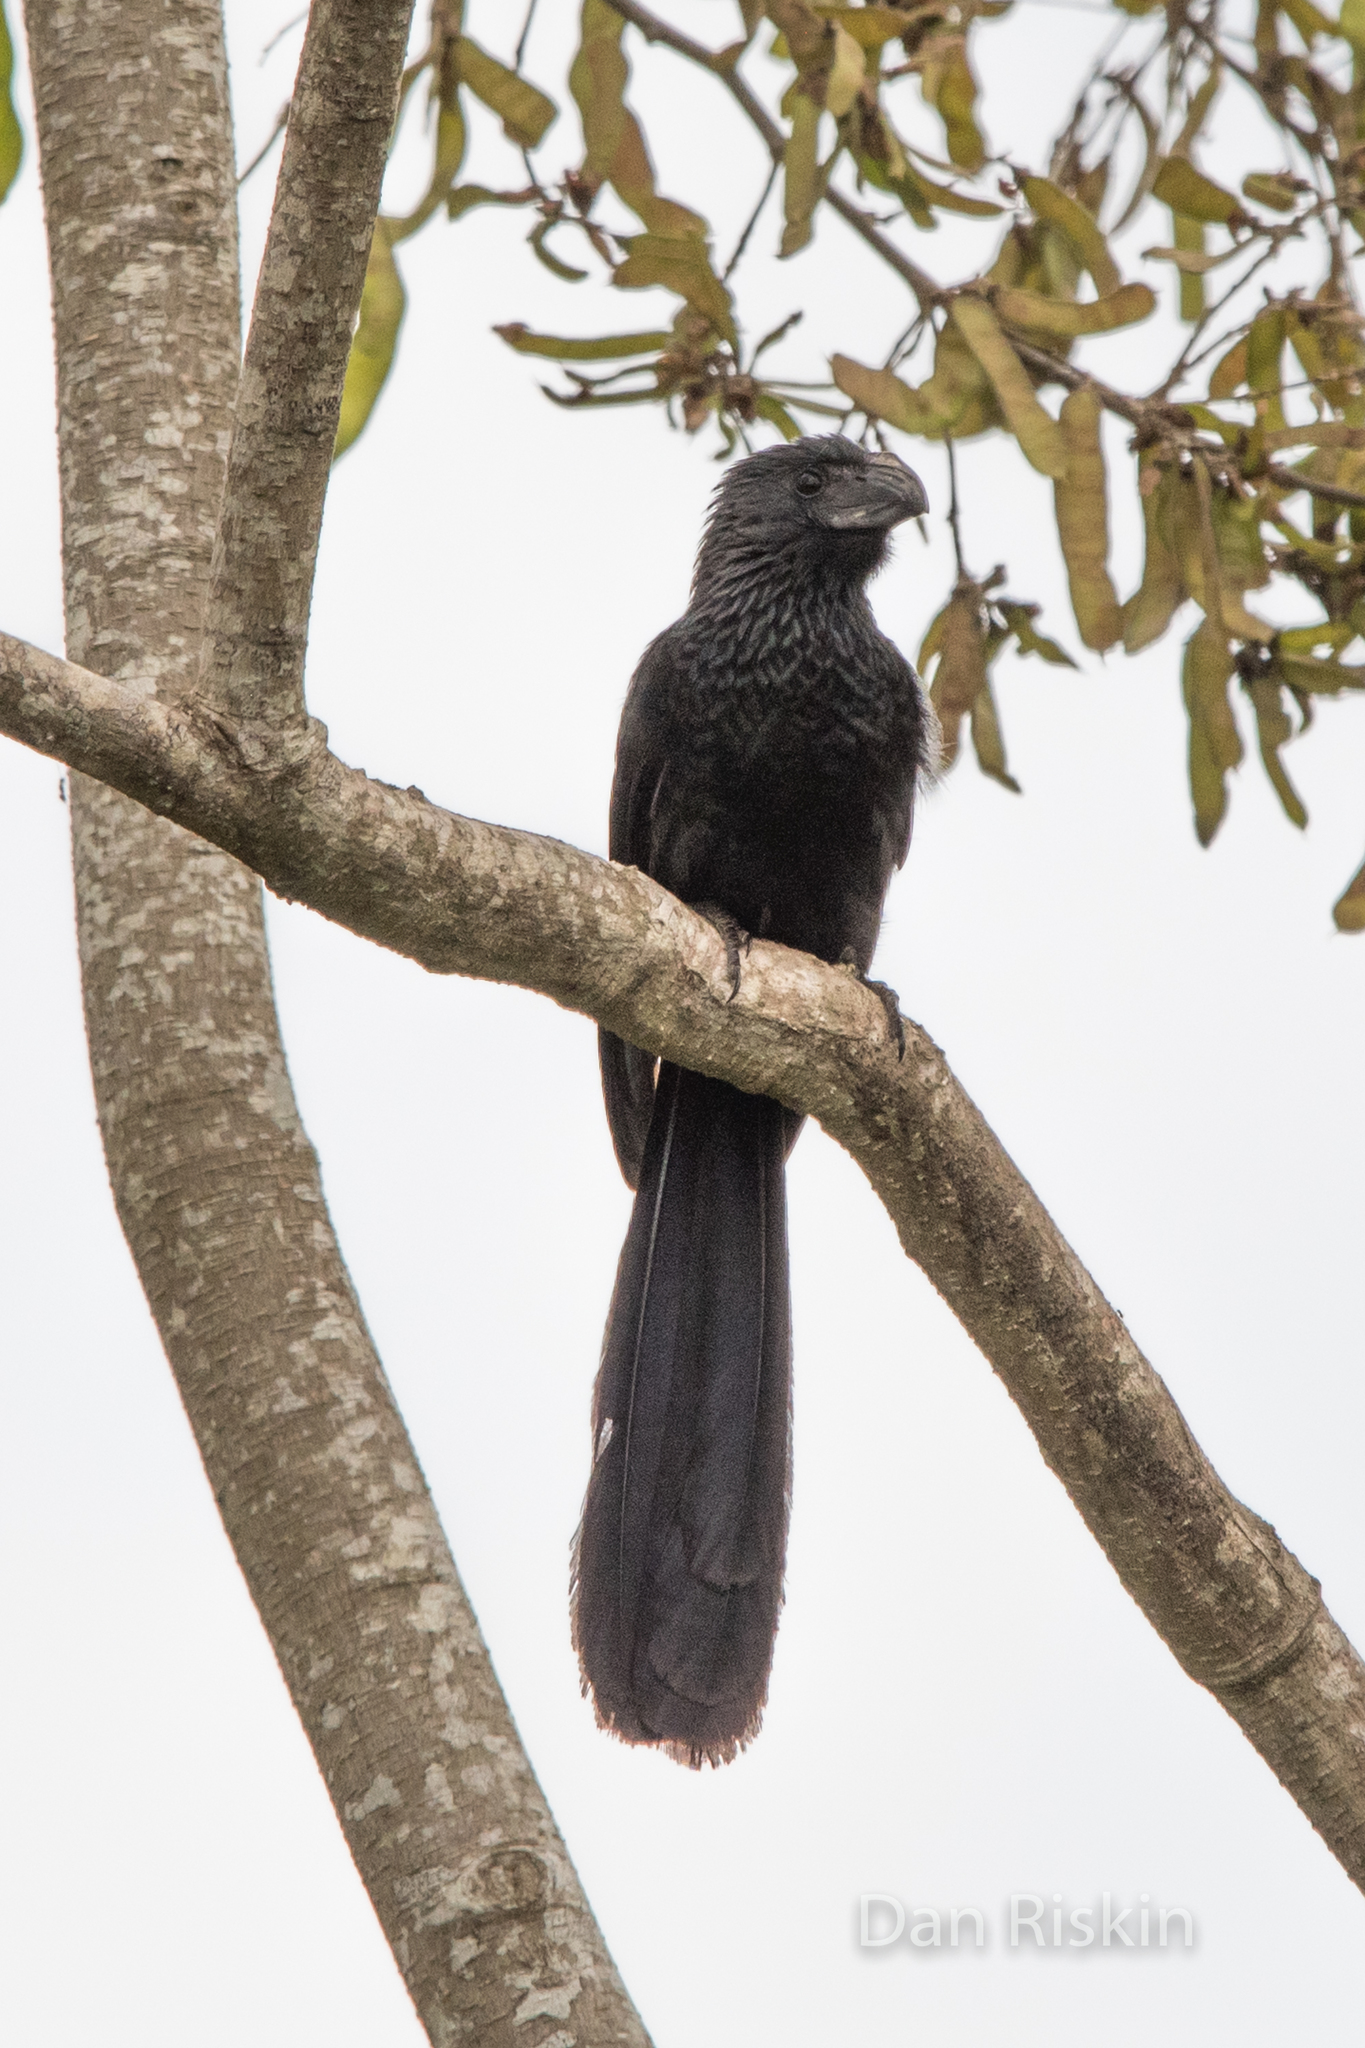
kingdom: Animalia
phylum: Chordata
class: Aves
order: Cuculiformes
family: Cuculidae
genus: Crotophaga
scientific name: Crotophaga sulcirostris
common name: Groove-billed ani
